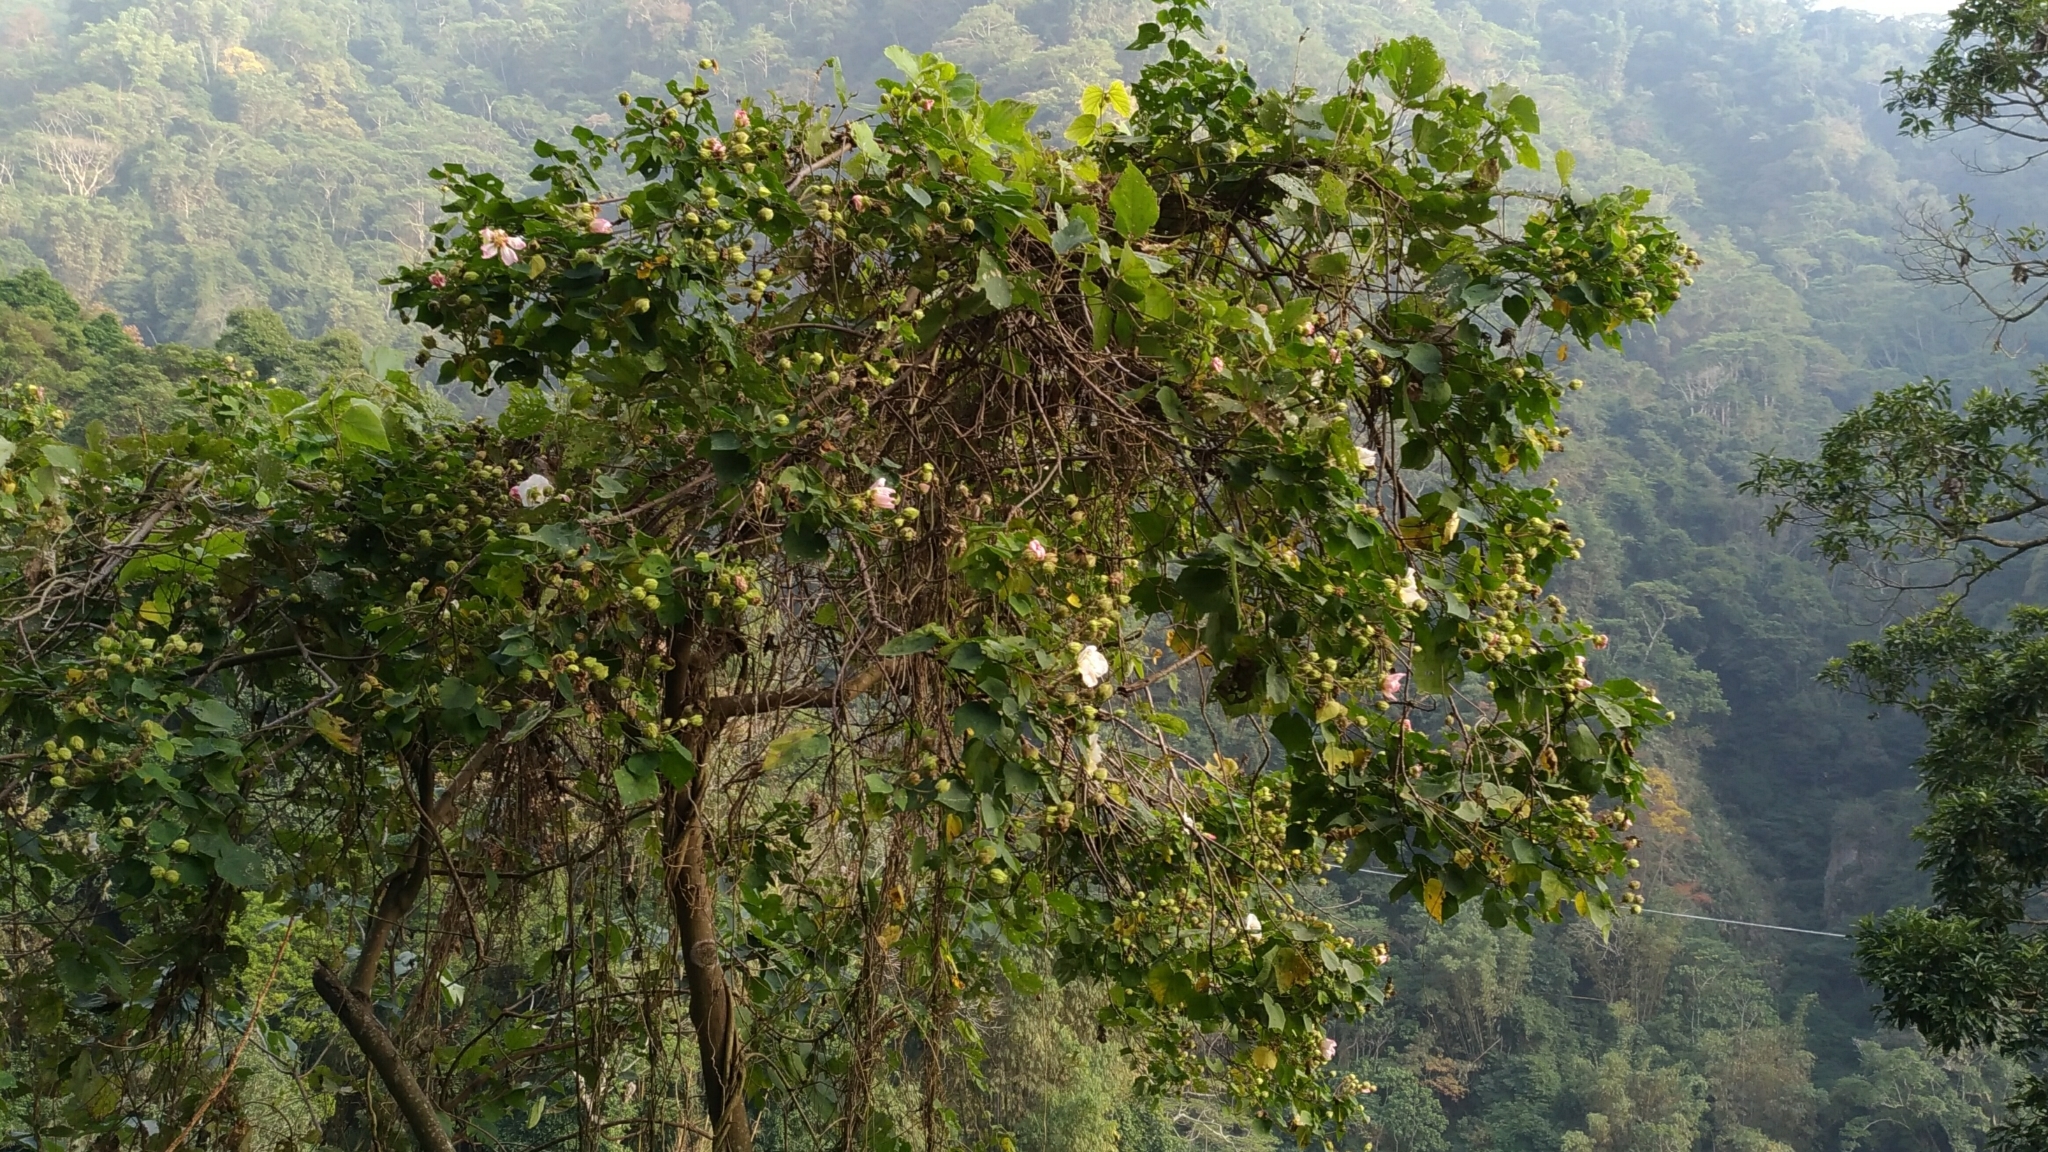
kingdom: Plantae
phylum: Tracheophyta
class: Magnoliopsida
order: Malvales
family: Malvaceae
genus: Hibiscus
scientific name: Hibiscus taiwanensis
